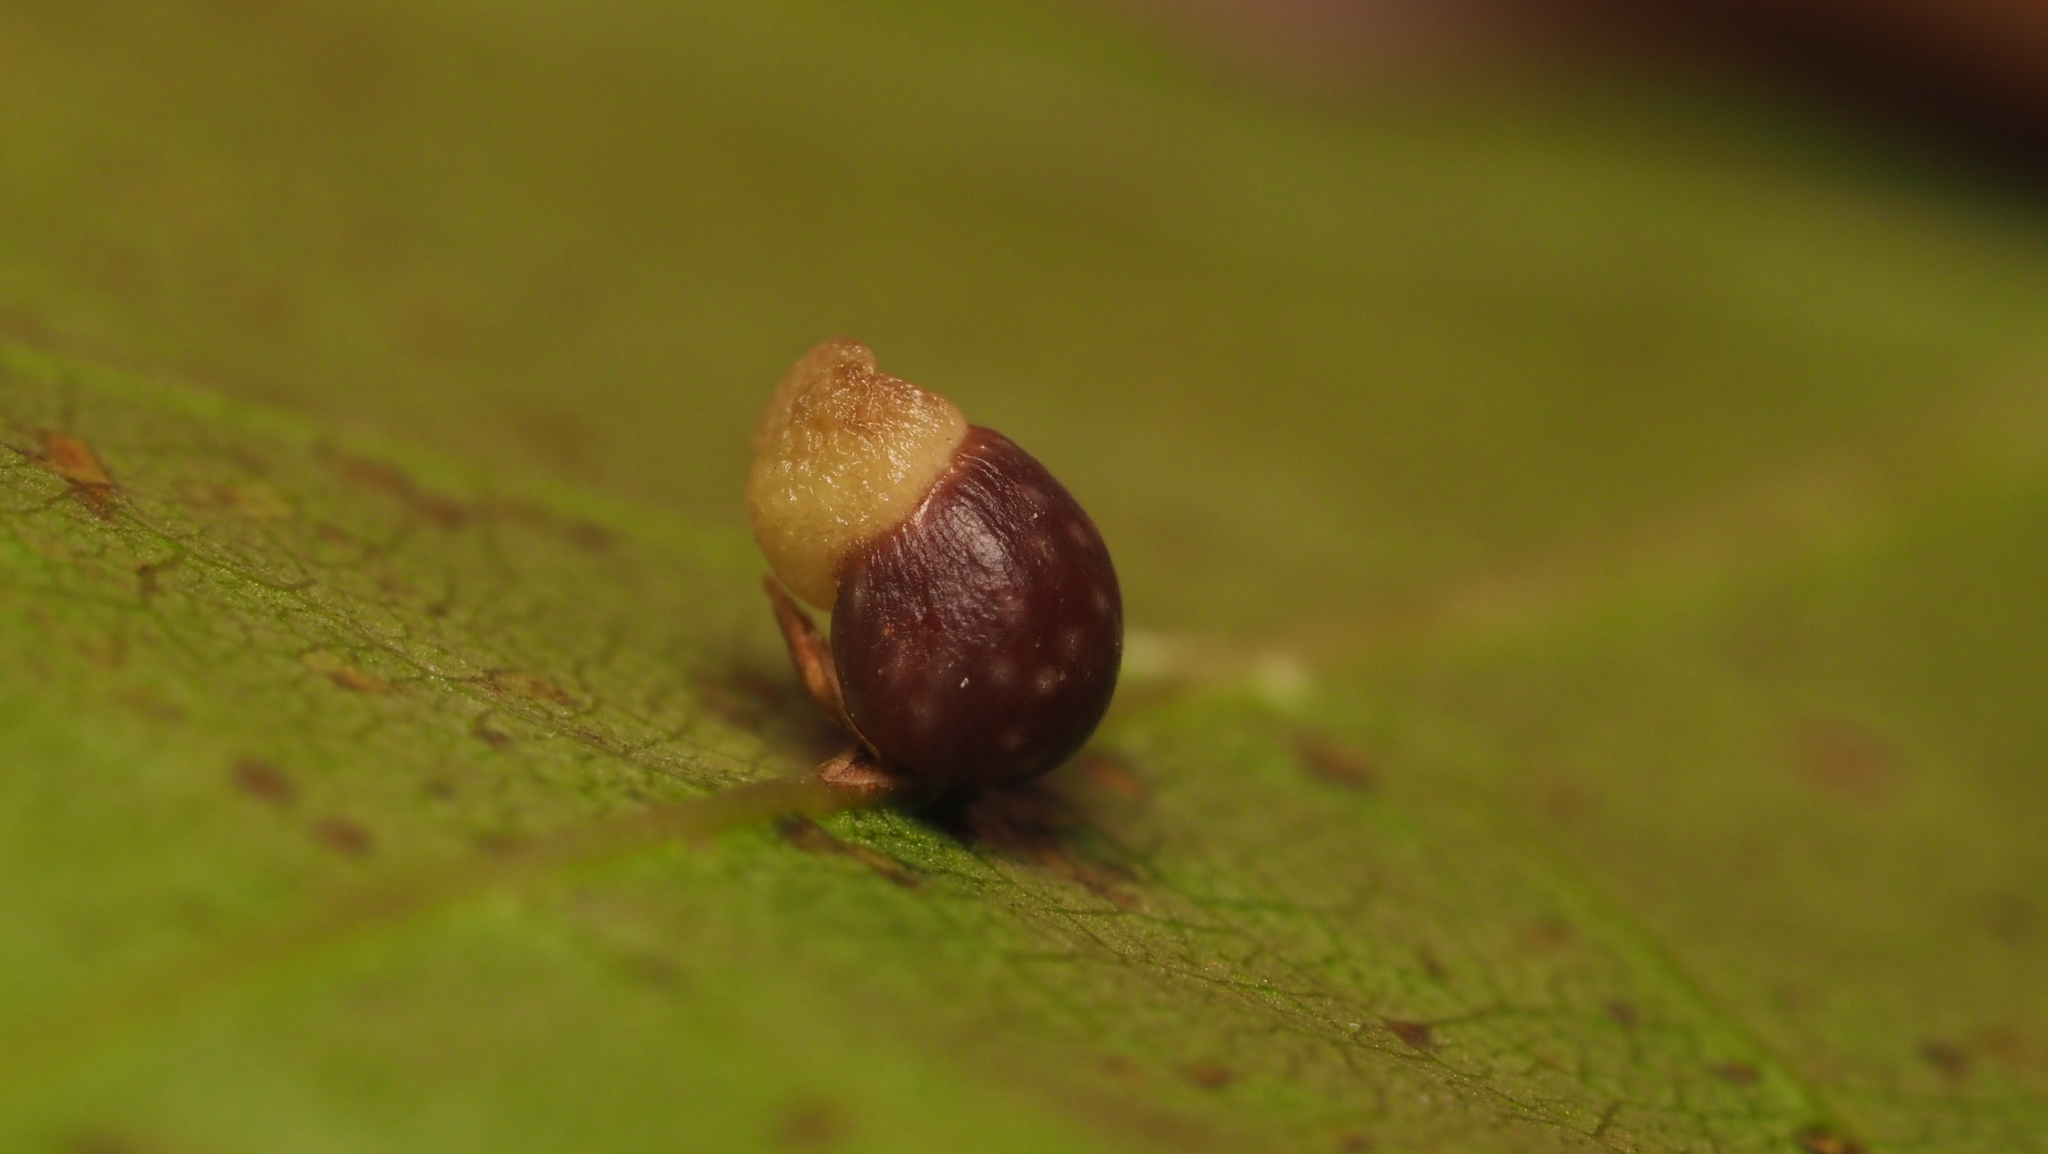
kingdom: Animalia
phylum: Arthropoda
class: Insecta
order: Hymenoptera
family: Cynipidae
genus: Kokkocynips
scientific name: Kokkocynips rileyi
